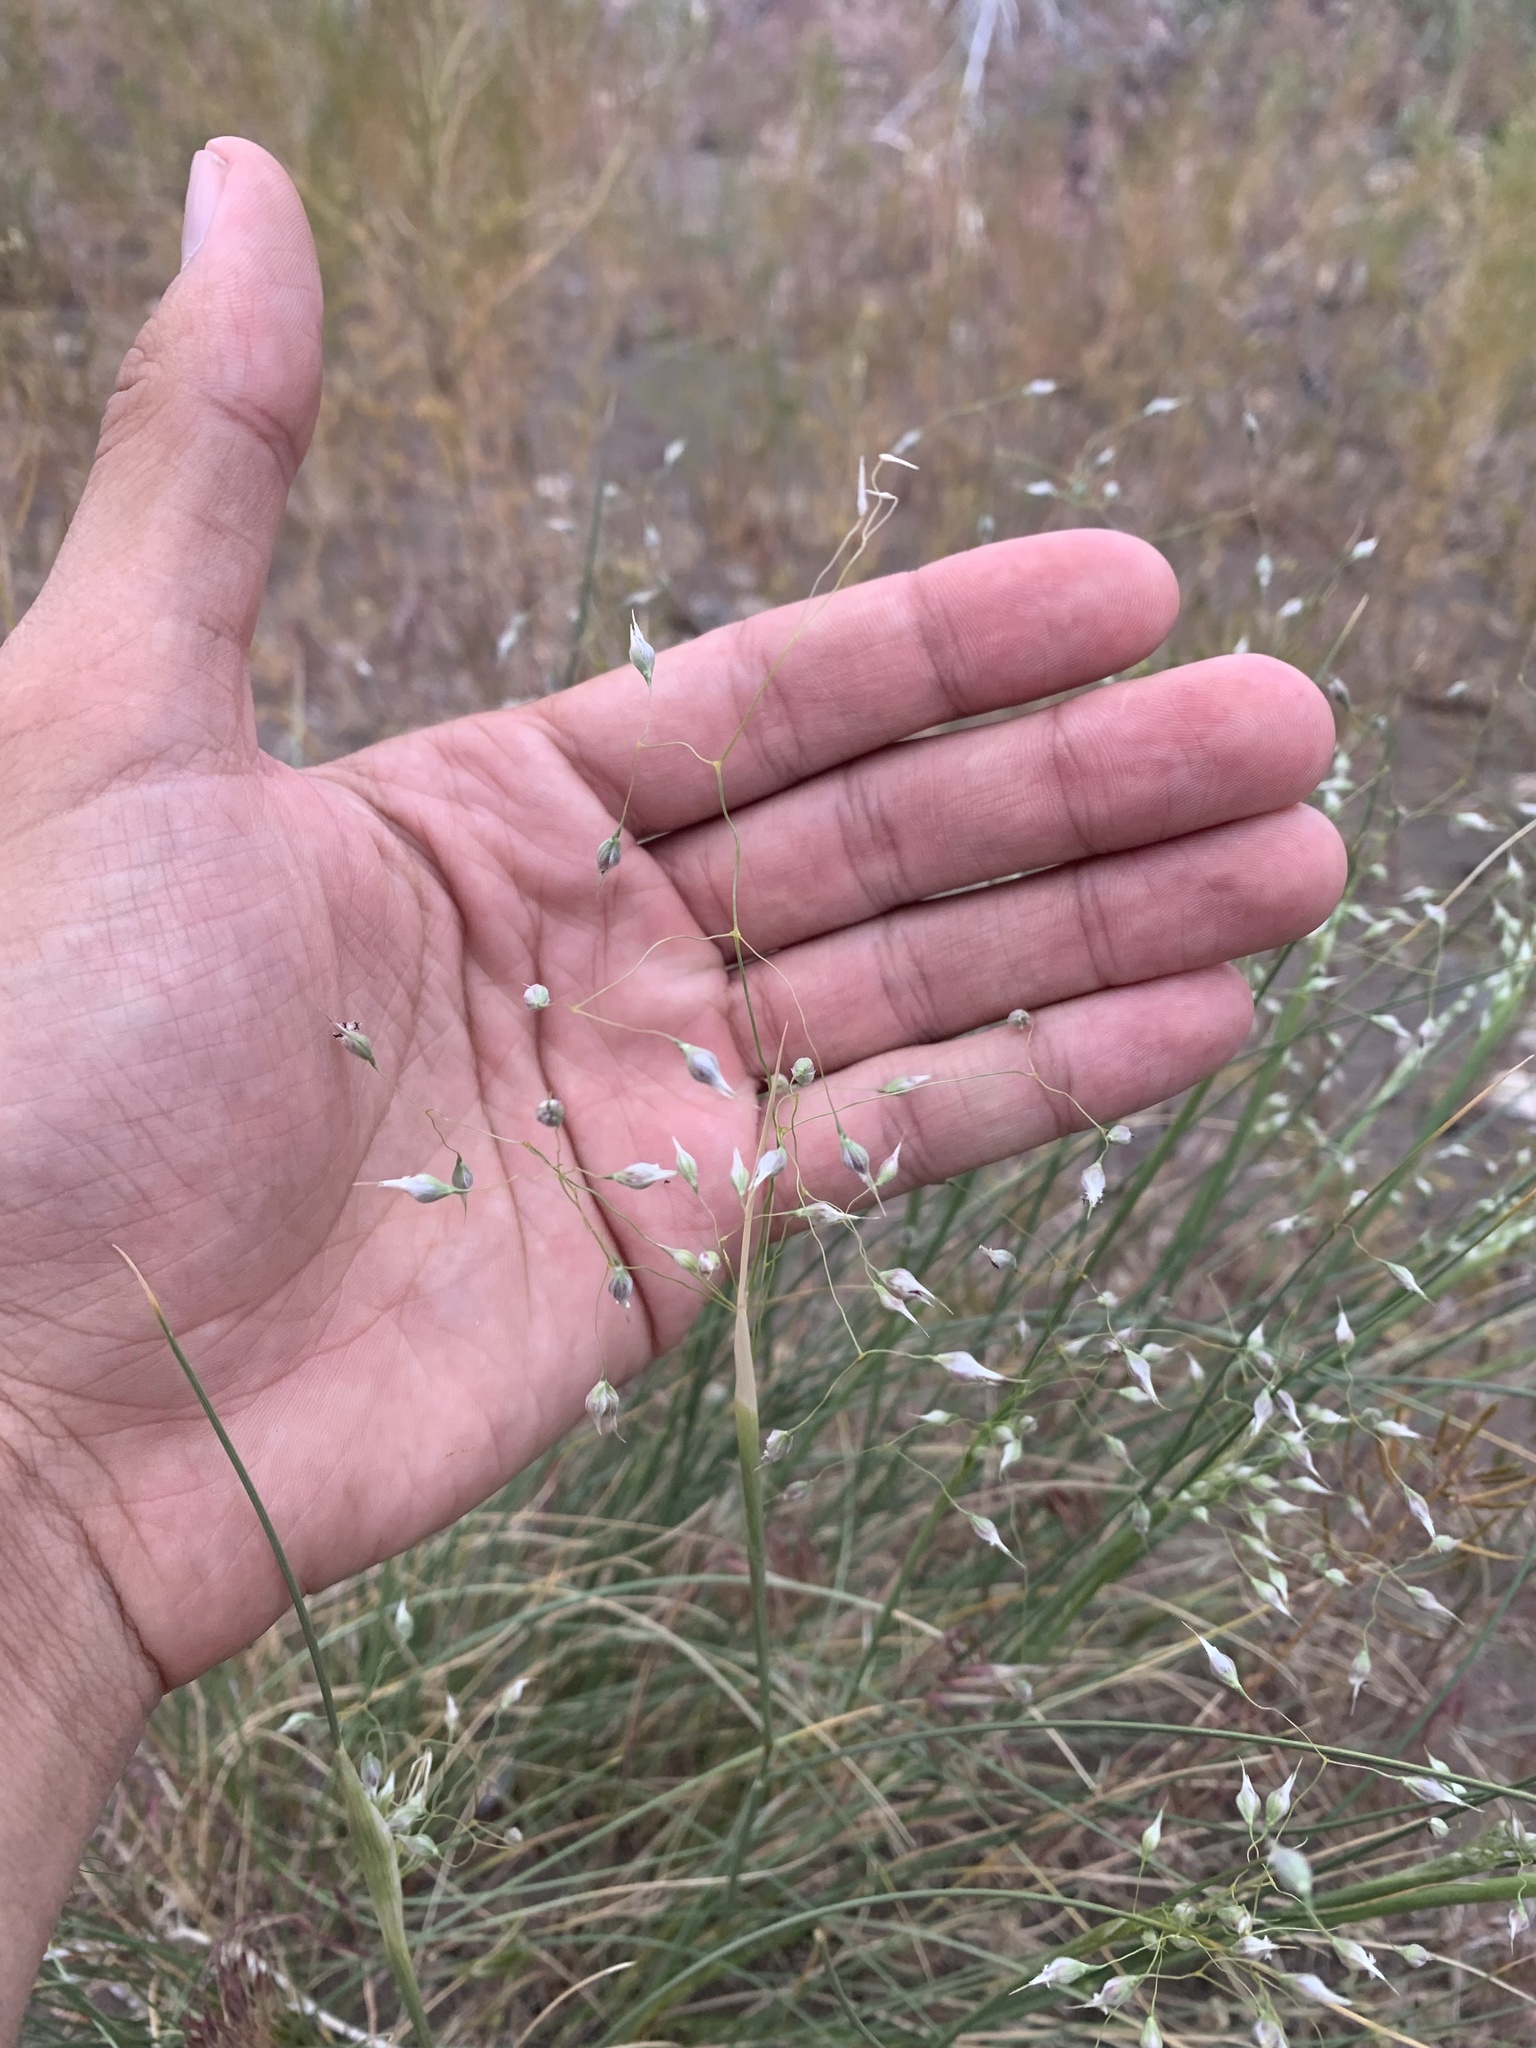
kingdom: Plantae
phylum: Tracheophyta
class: Liliopsida
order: Poales
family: Poaceae
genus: Eriocoma
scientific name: Eriocoma hymenoides
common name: Indian mountain ricegrass
